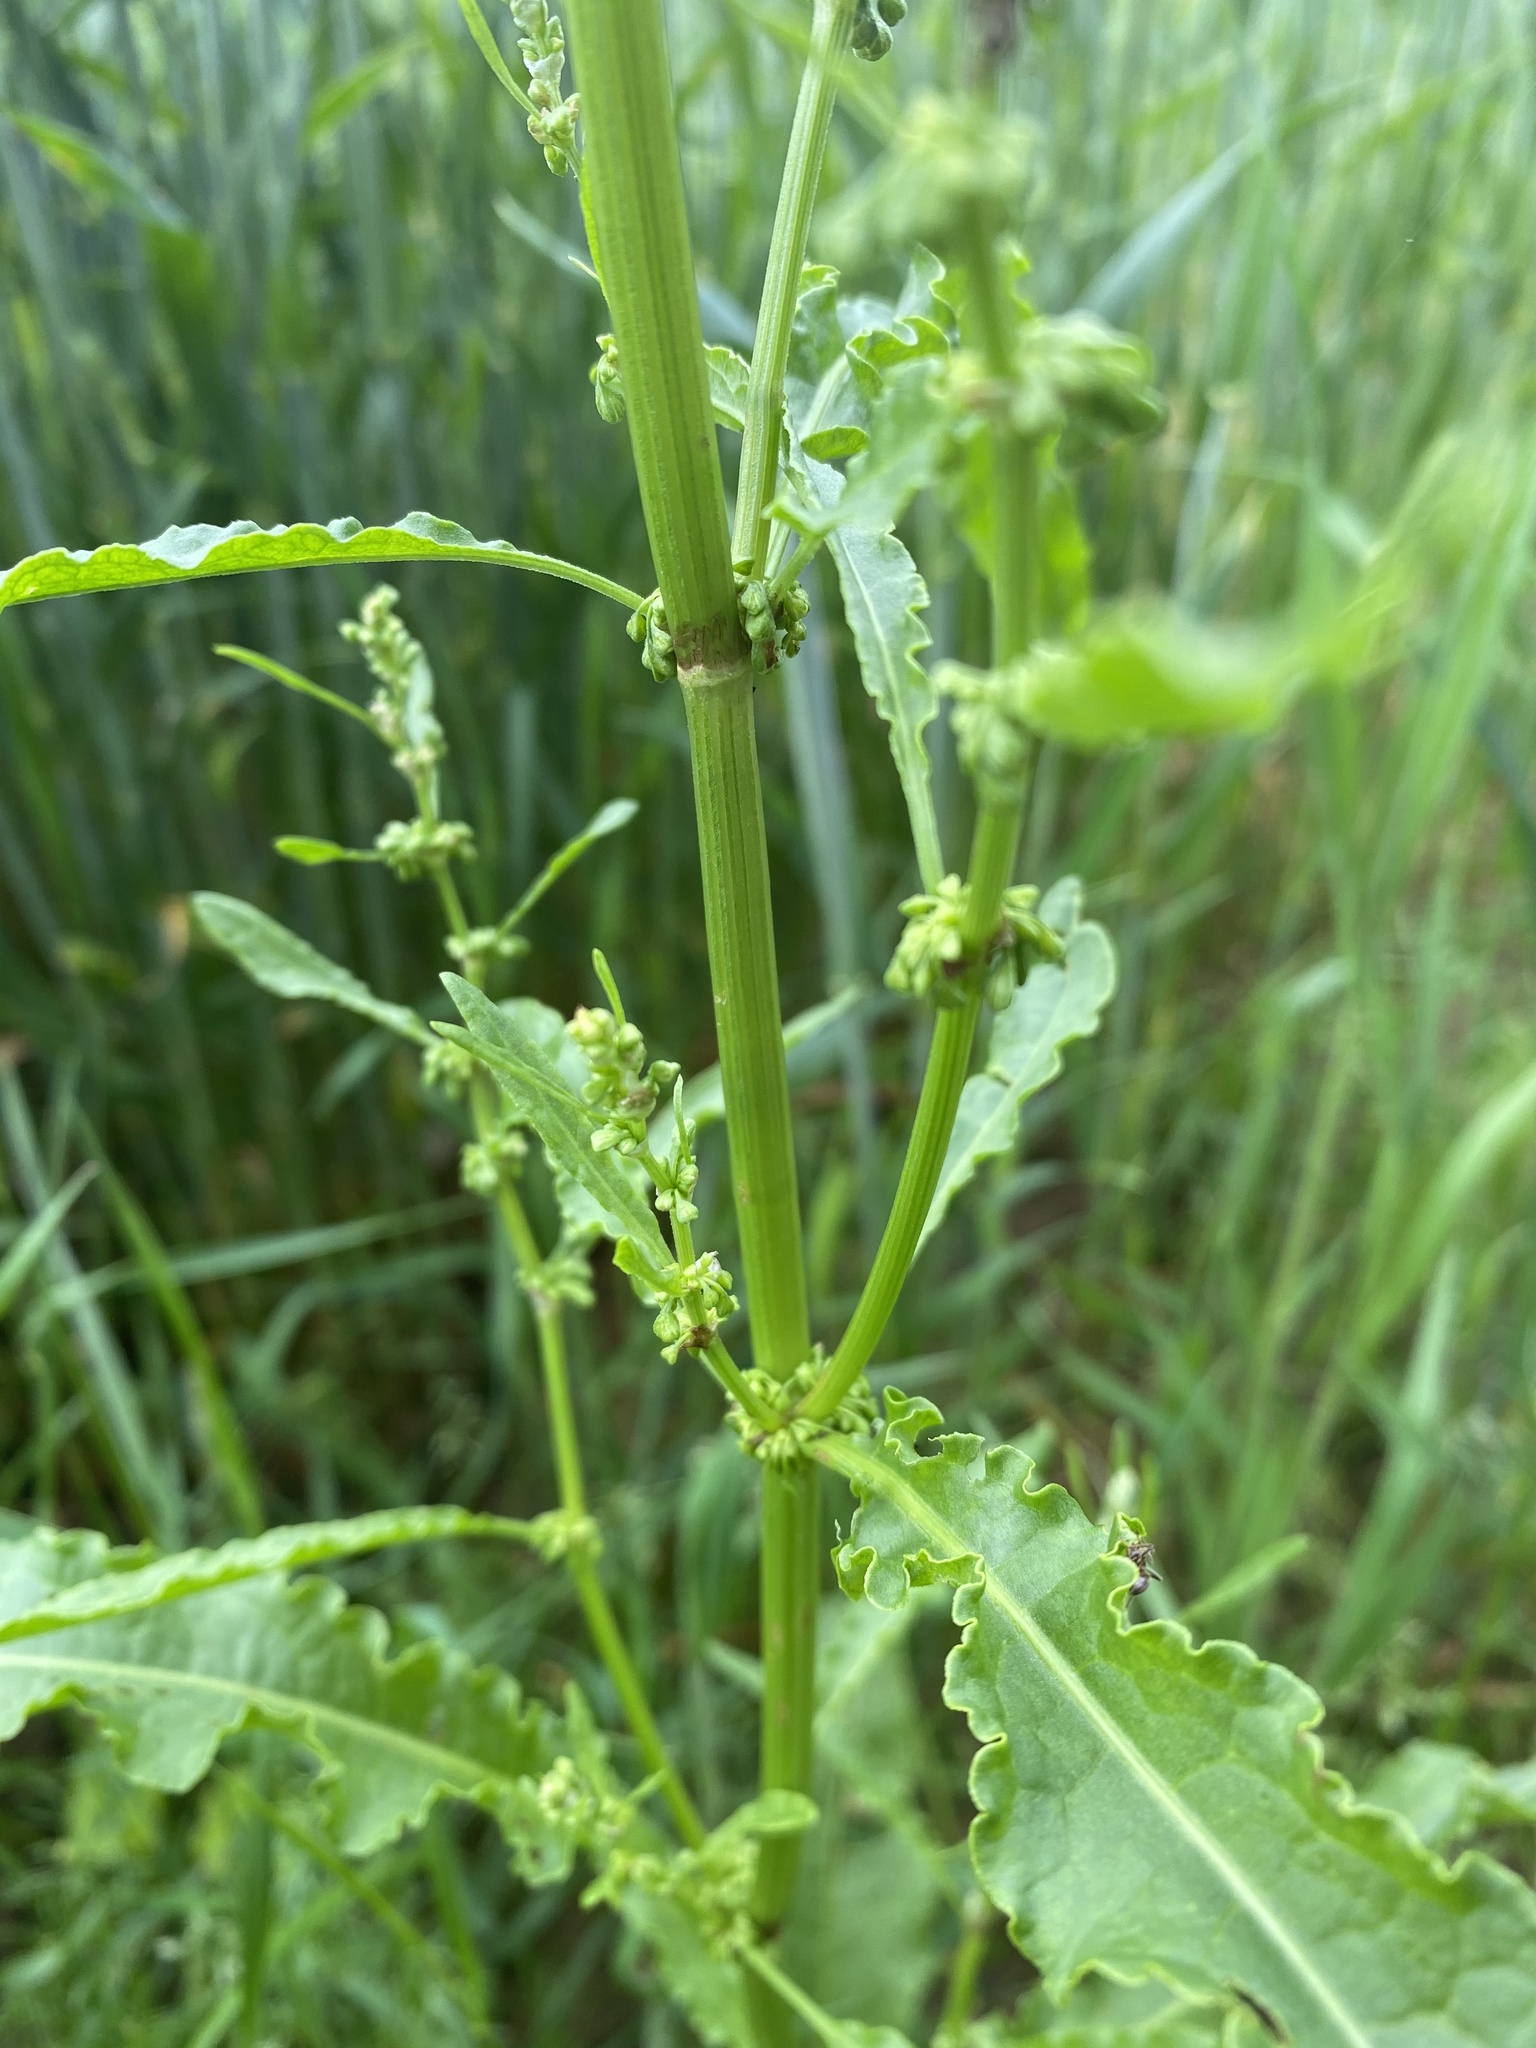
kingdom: Plantae
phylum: Tracheophyta
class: Magnoliopsida
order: Caryophyllales
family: Polygonaceae
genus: Rumex
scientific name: Rumex crispus
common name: Curled dock
